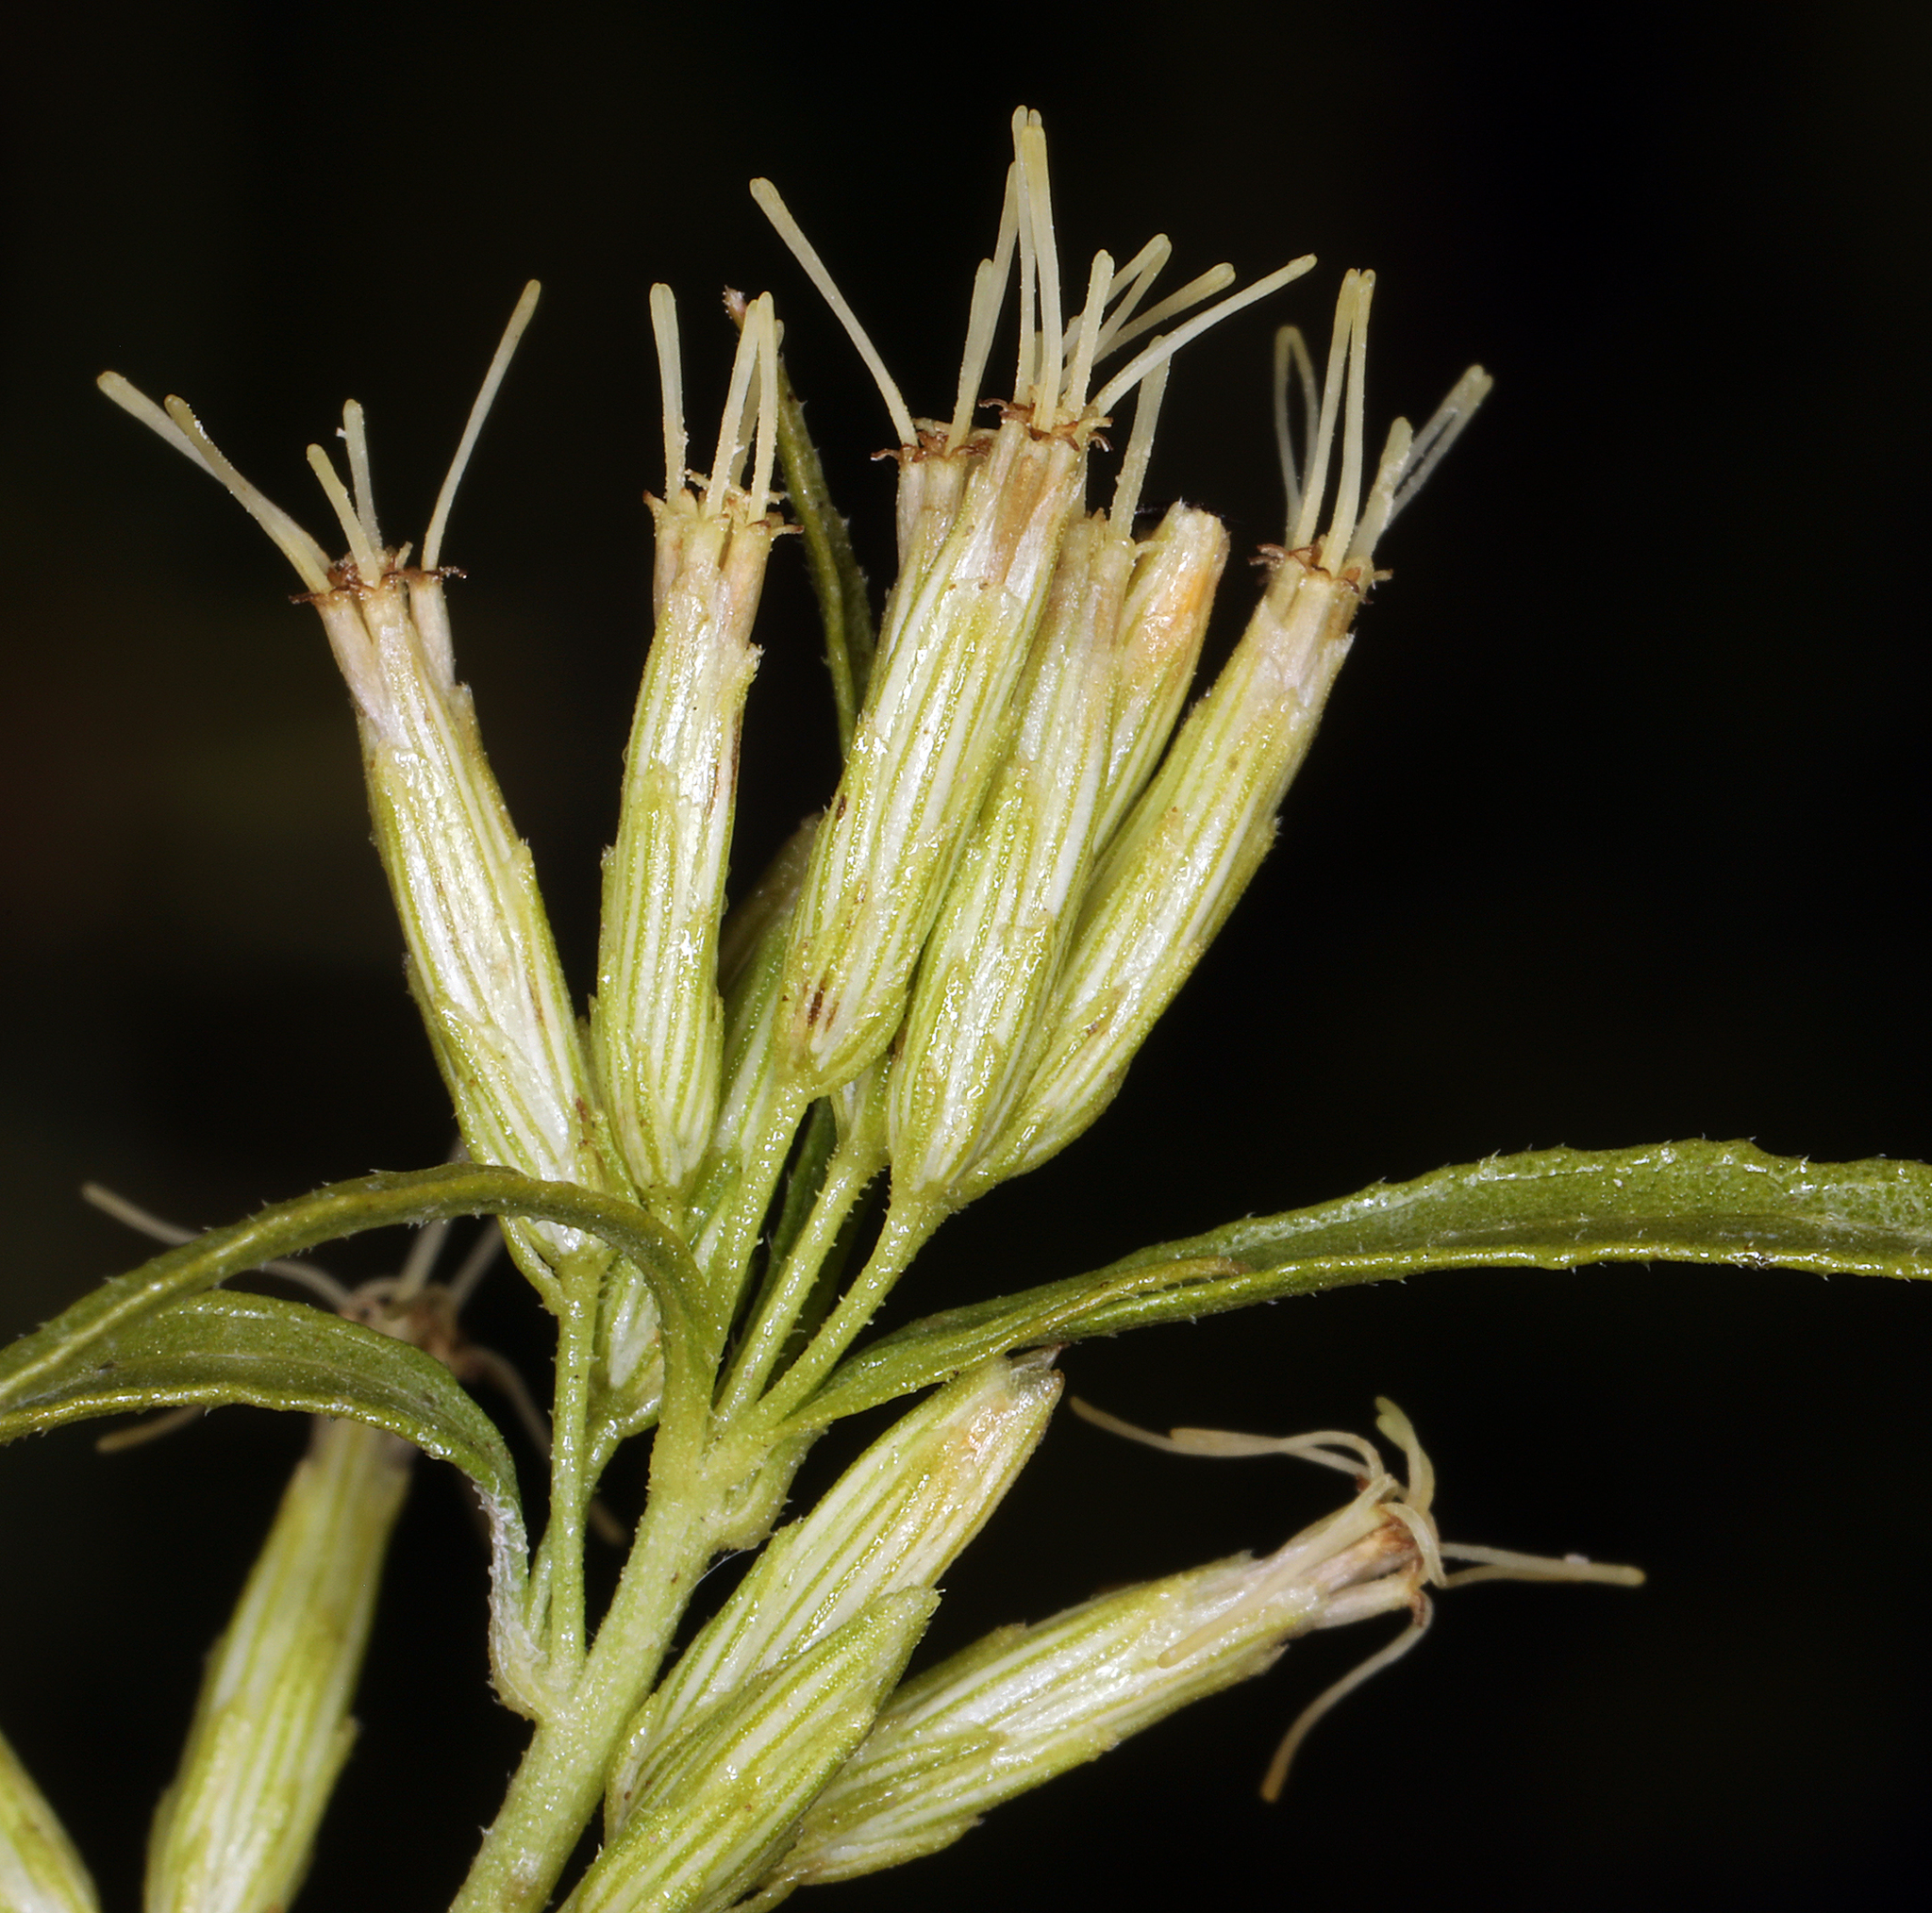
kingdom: Plantae
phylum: Tracheophyta
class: Magnoliopsida
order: Asterales
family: Asteraceae
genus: Brickellia
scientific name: Brickellia longifolia
